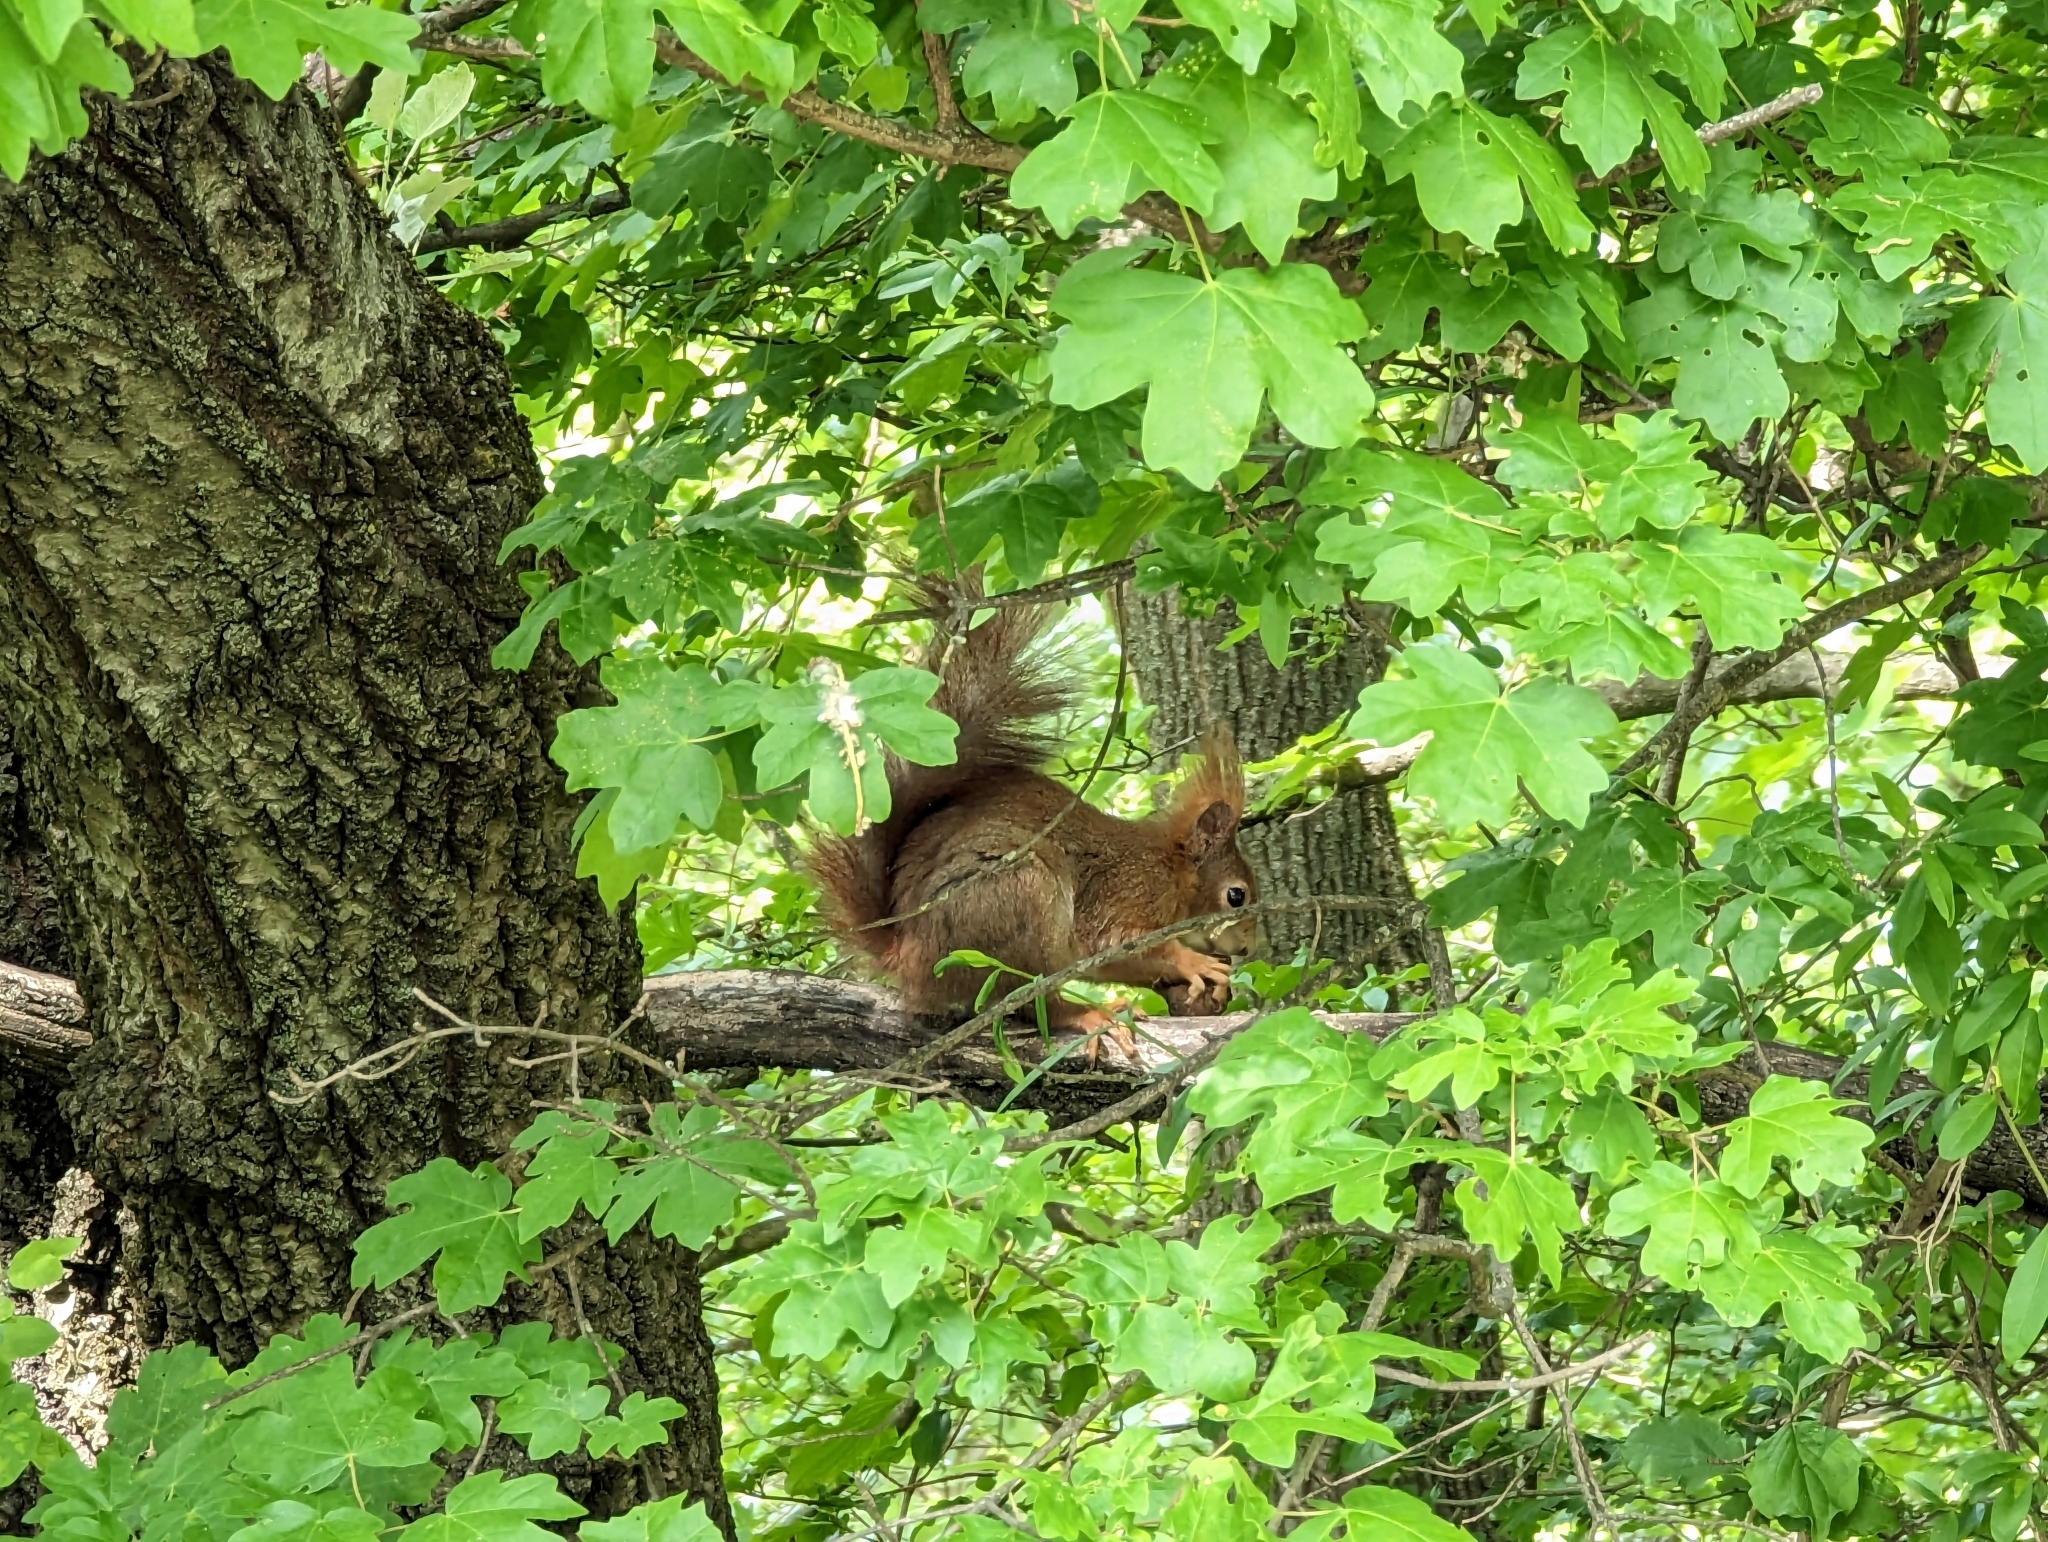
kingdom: Animalia
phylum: Chordata
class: Mammalia
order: Rodentia
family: Sciuridae
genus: Sciurus
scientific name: Sciurus vulgaris
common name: Eurasian red squirrel
